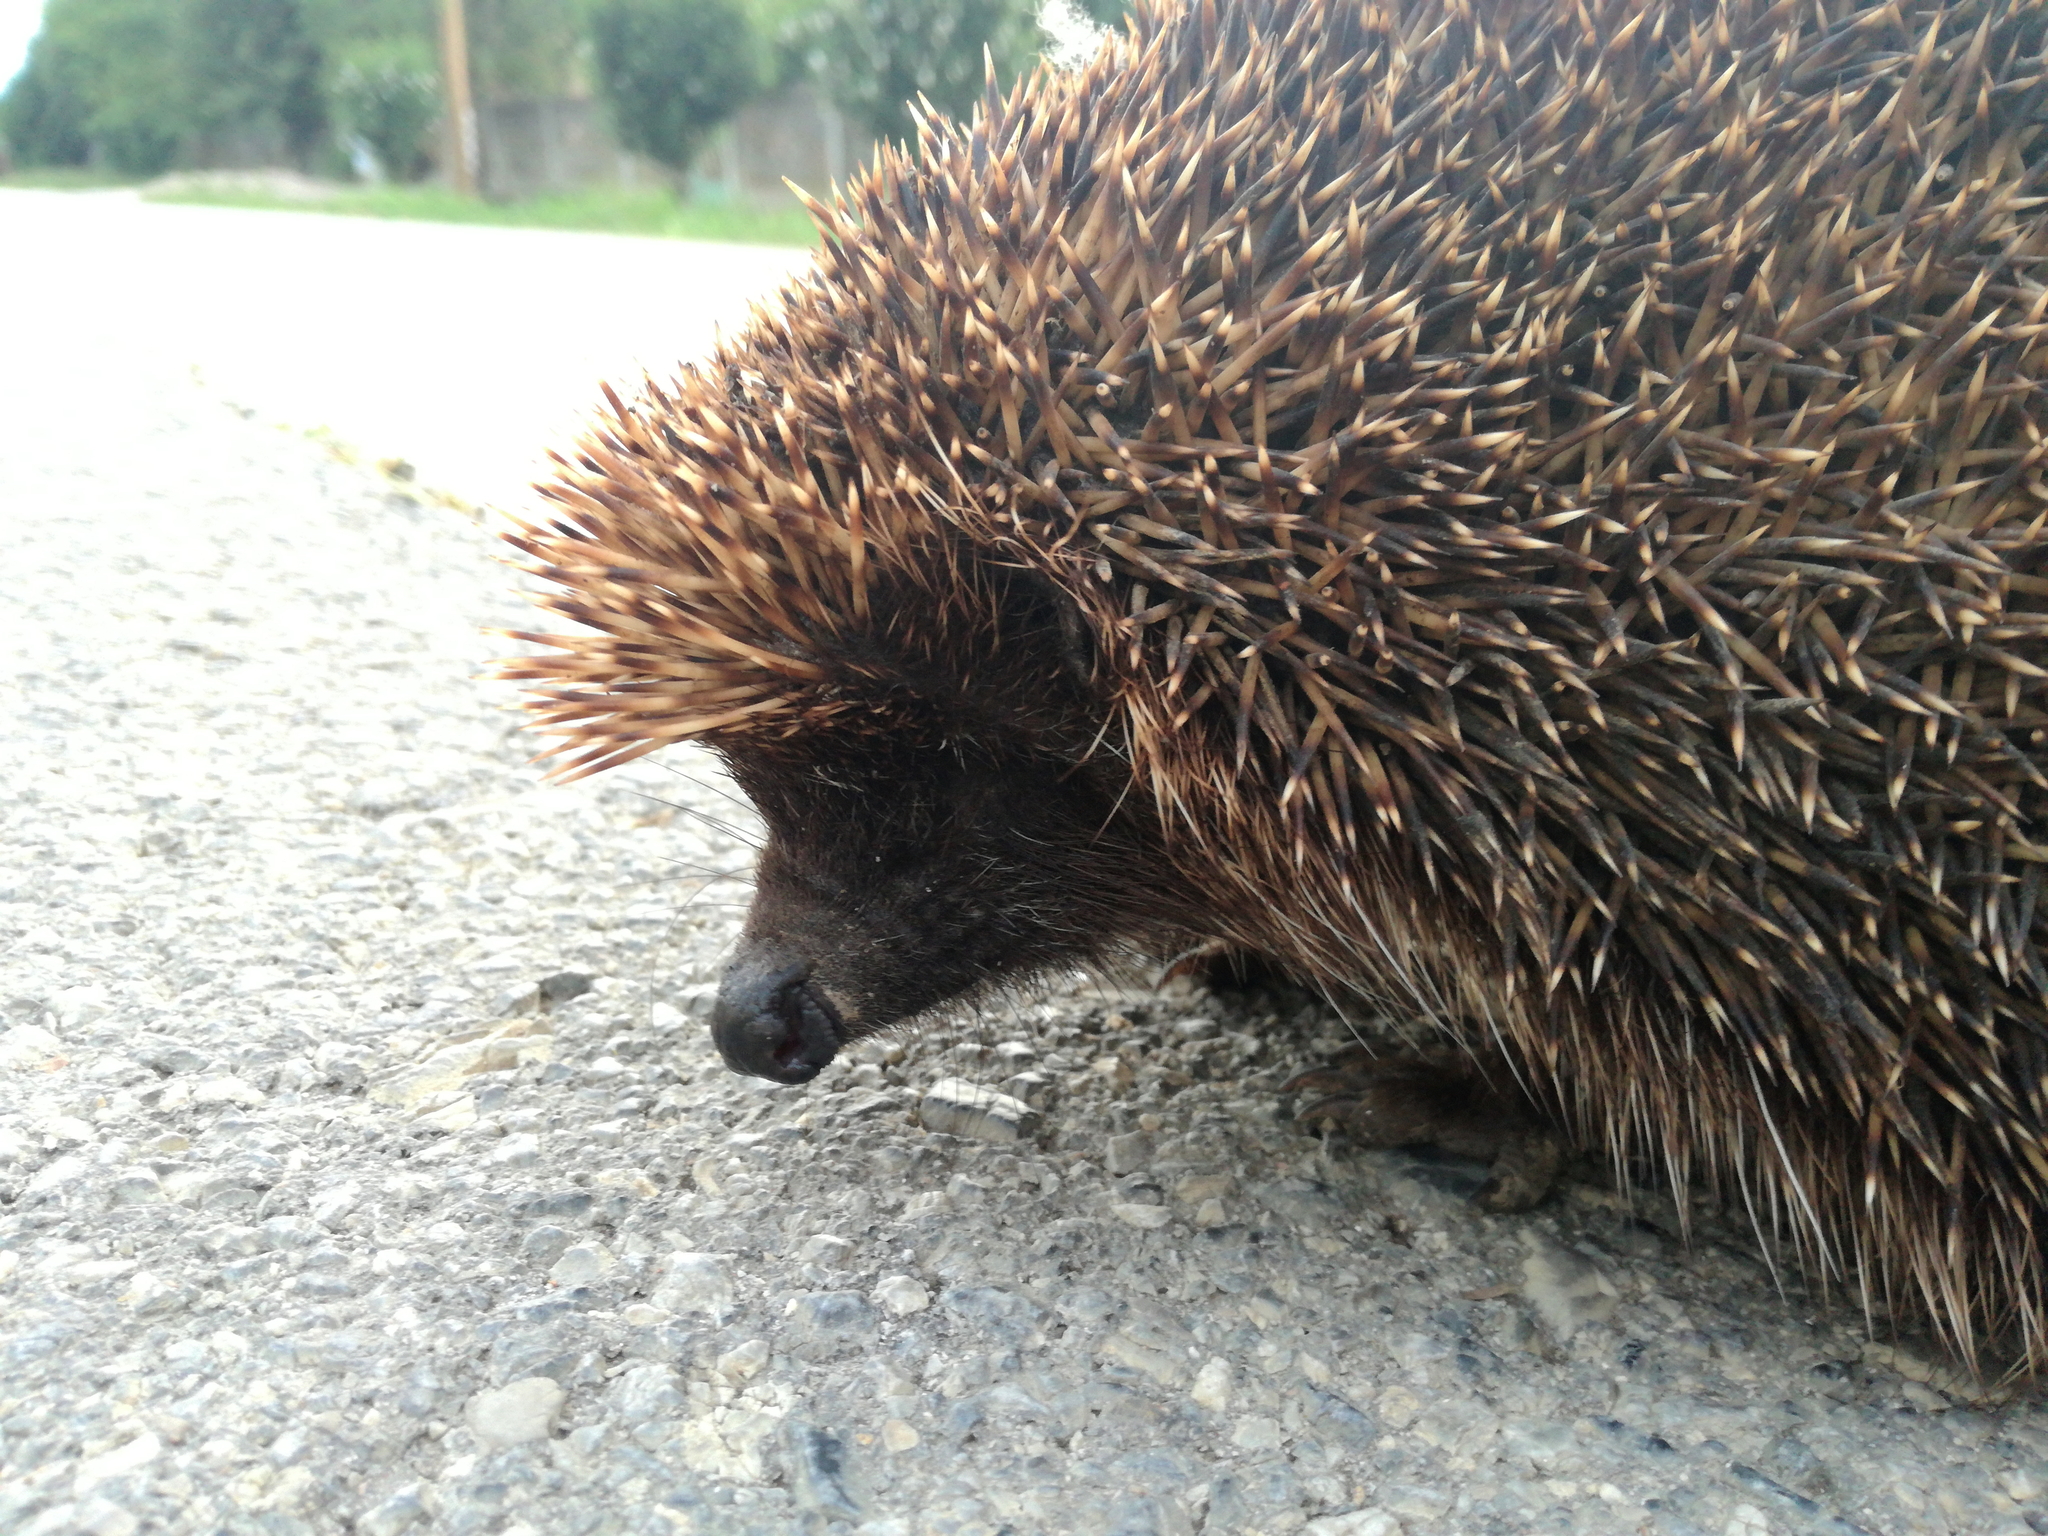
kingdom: Animalia
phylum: Chordata
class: Mammalia
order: Erinaceomorpha
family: Erinaceidae
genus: Erinaceus
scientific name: Erinaceus roumanicus
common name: Northern white-breasted hedgehog
